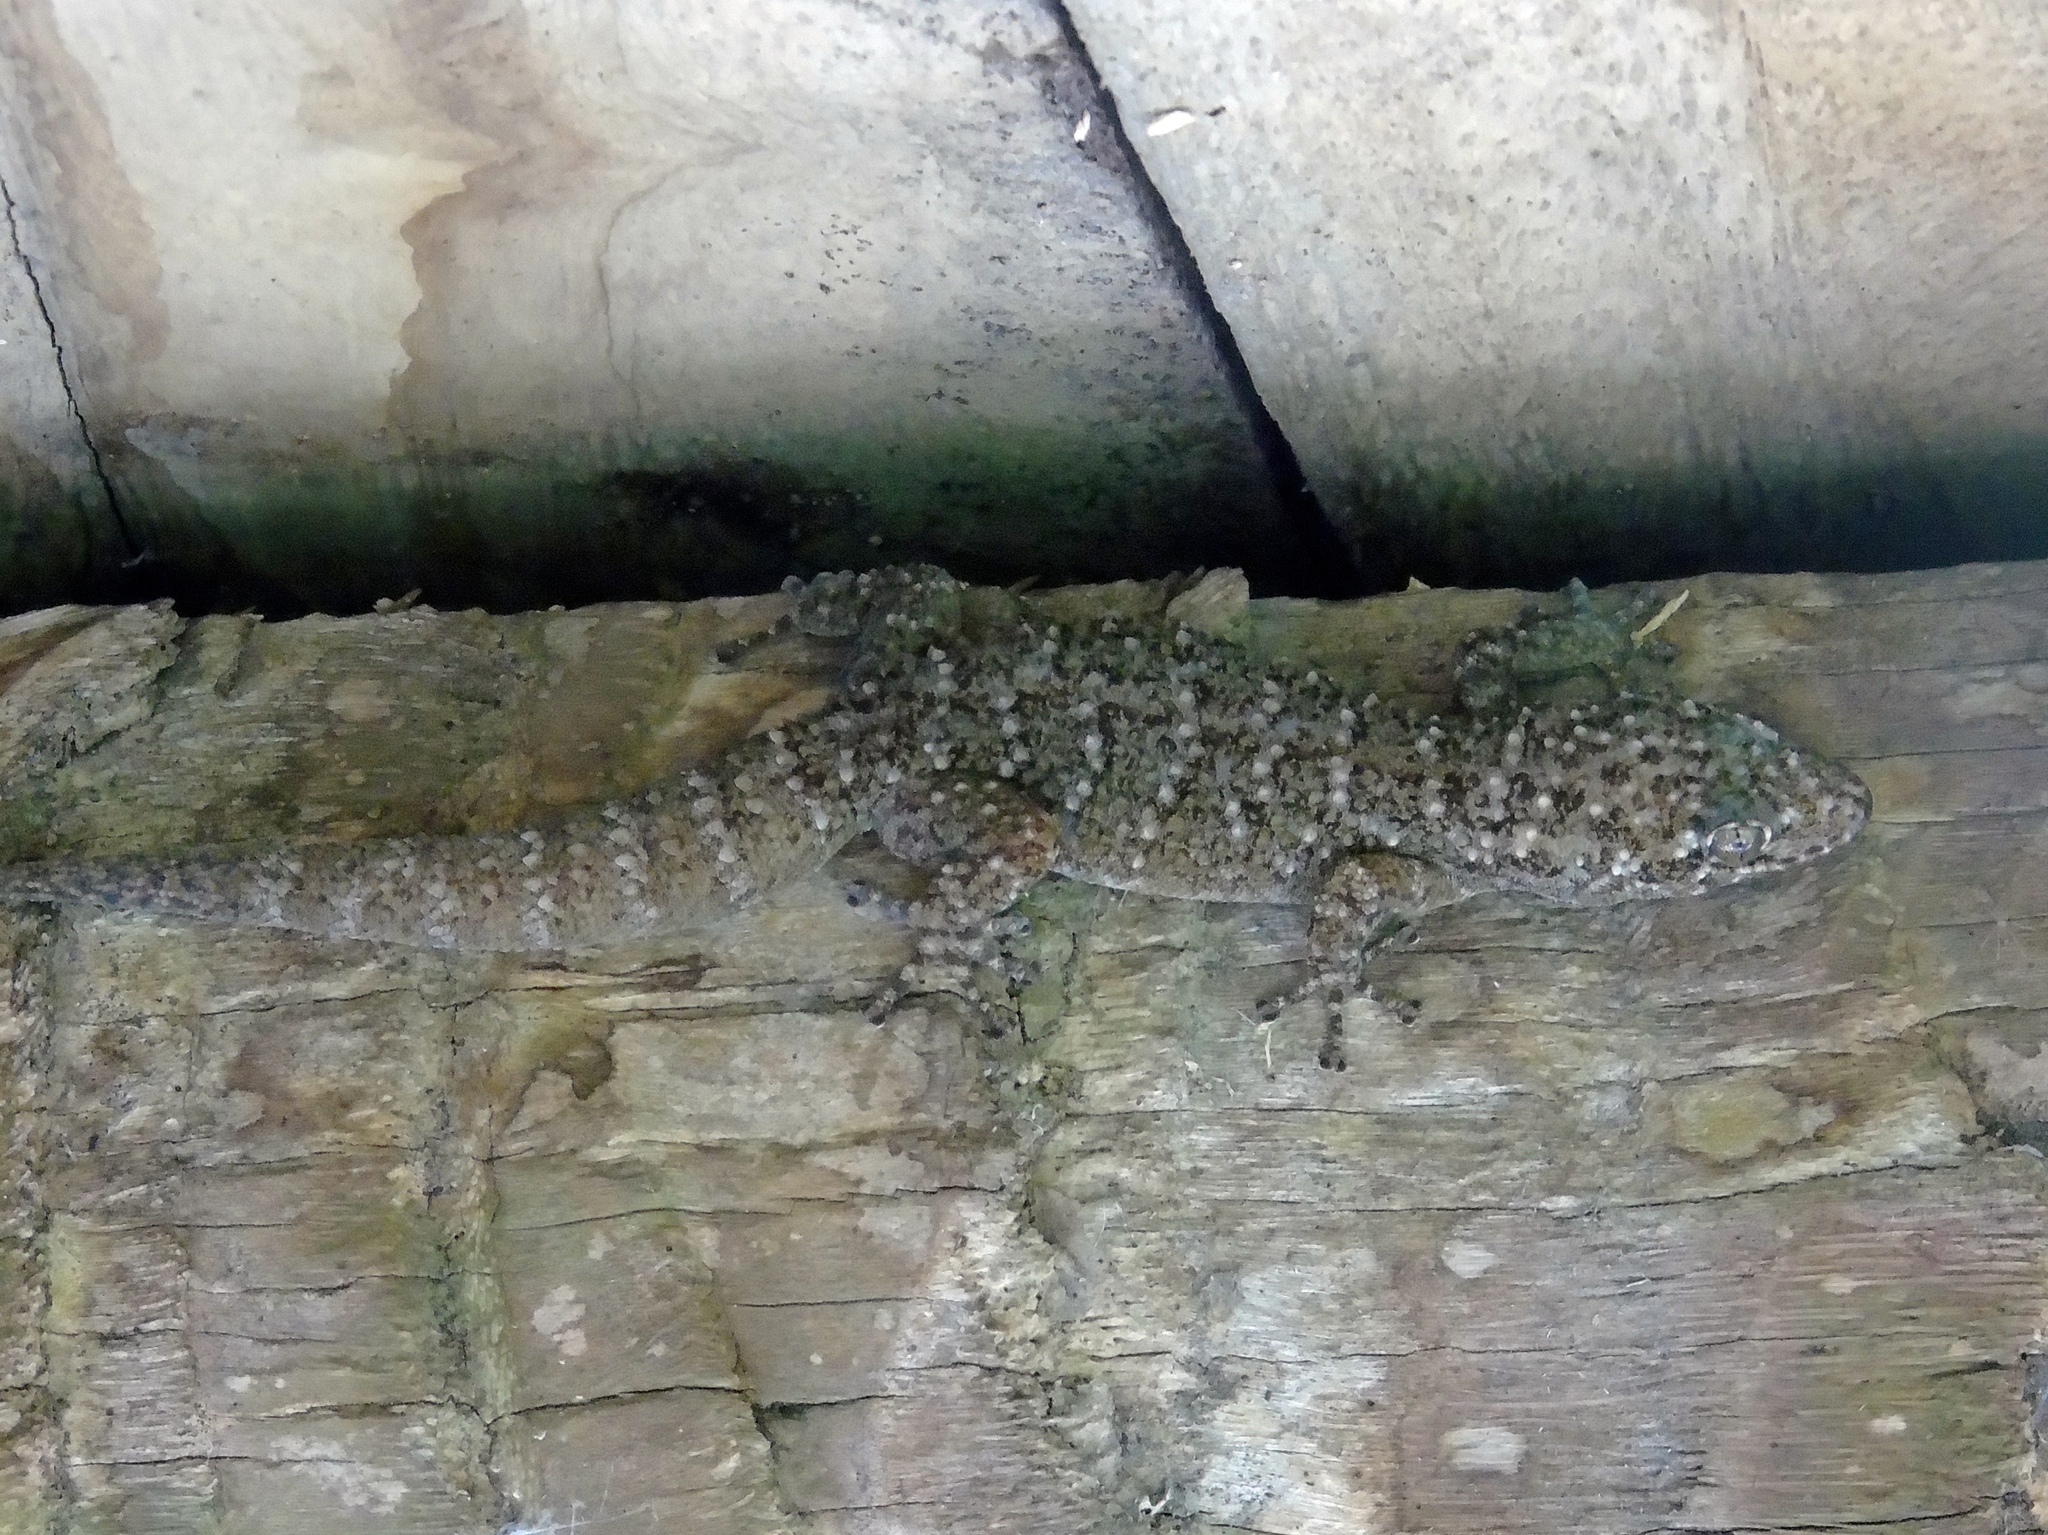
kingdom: Animalia
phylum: Chordata
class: Squamata
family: Phyllodactylidae
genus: Phyllodactylus
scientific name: Phyllodactylus tuberculosus
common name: Yellowbelly  gecko
